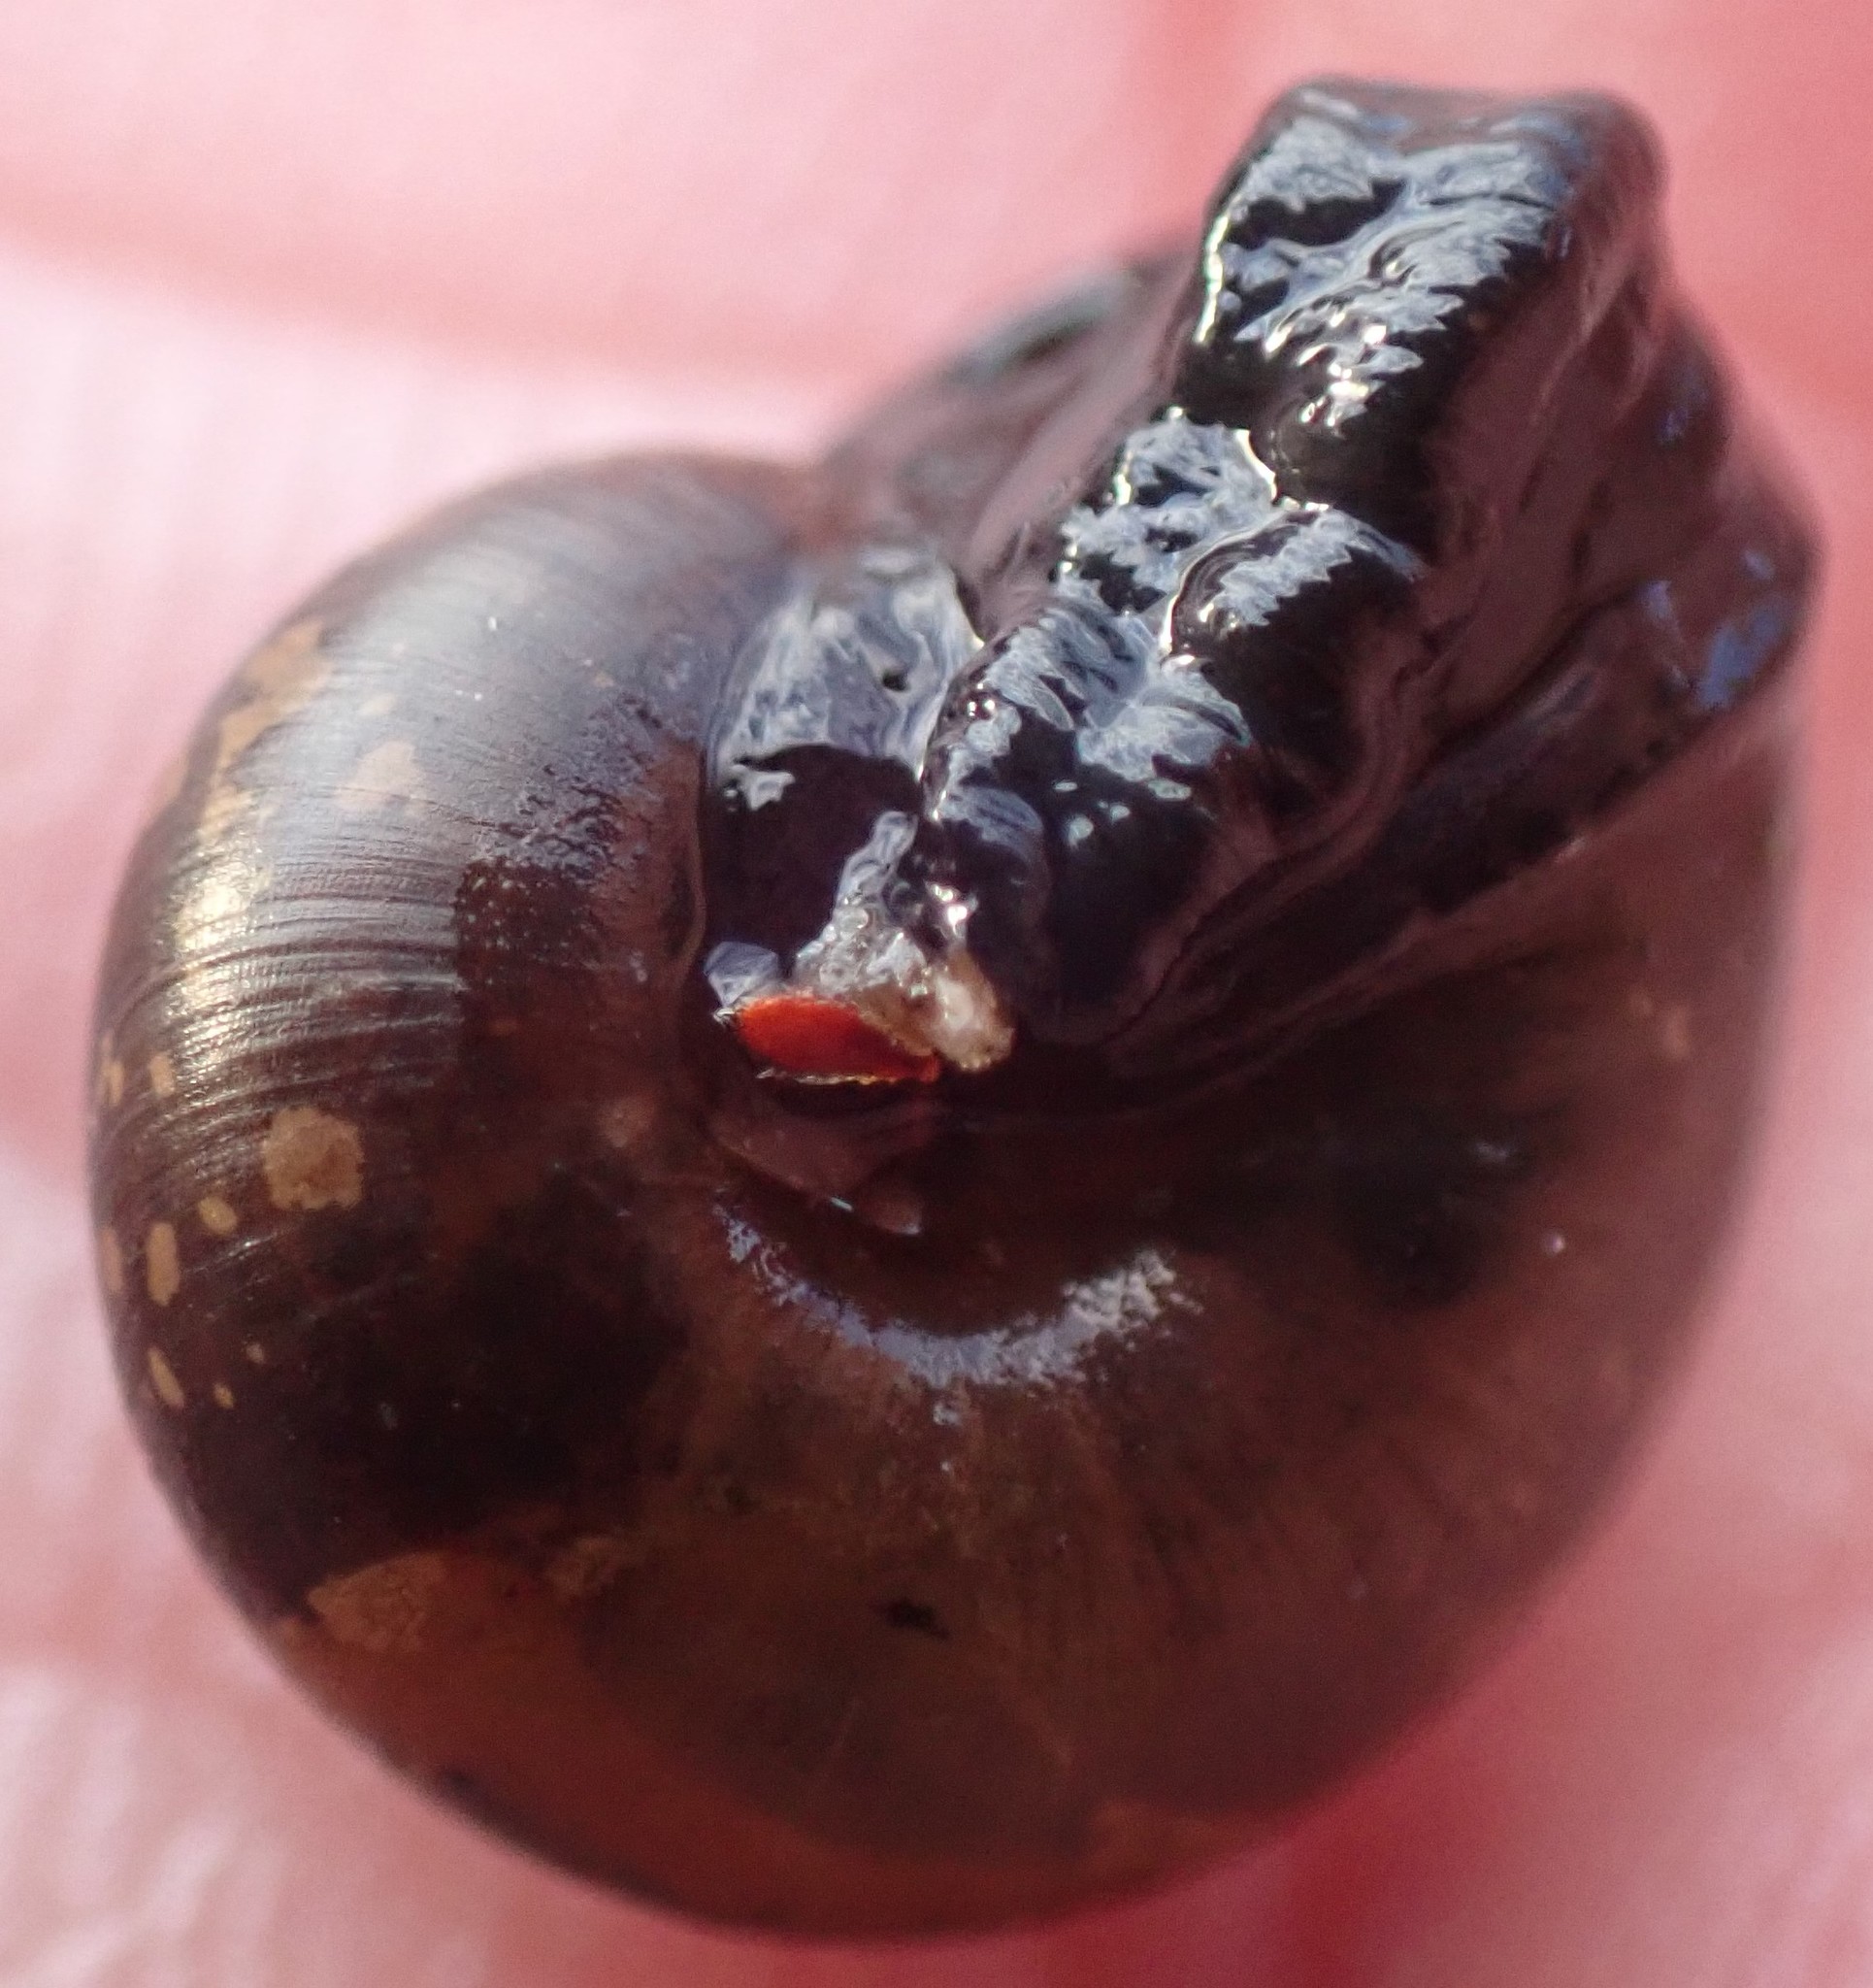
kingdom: Animalia
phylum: Mollusca
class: Gastropoda
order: Stylommatophora
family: Charopidae
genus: Stenacapha
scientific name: Stenacapha
